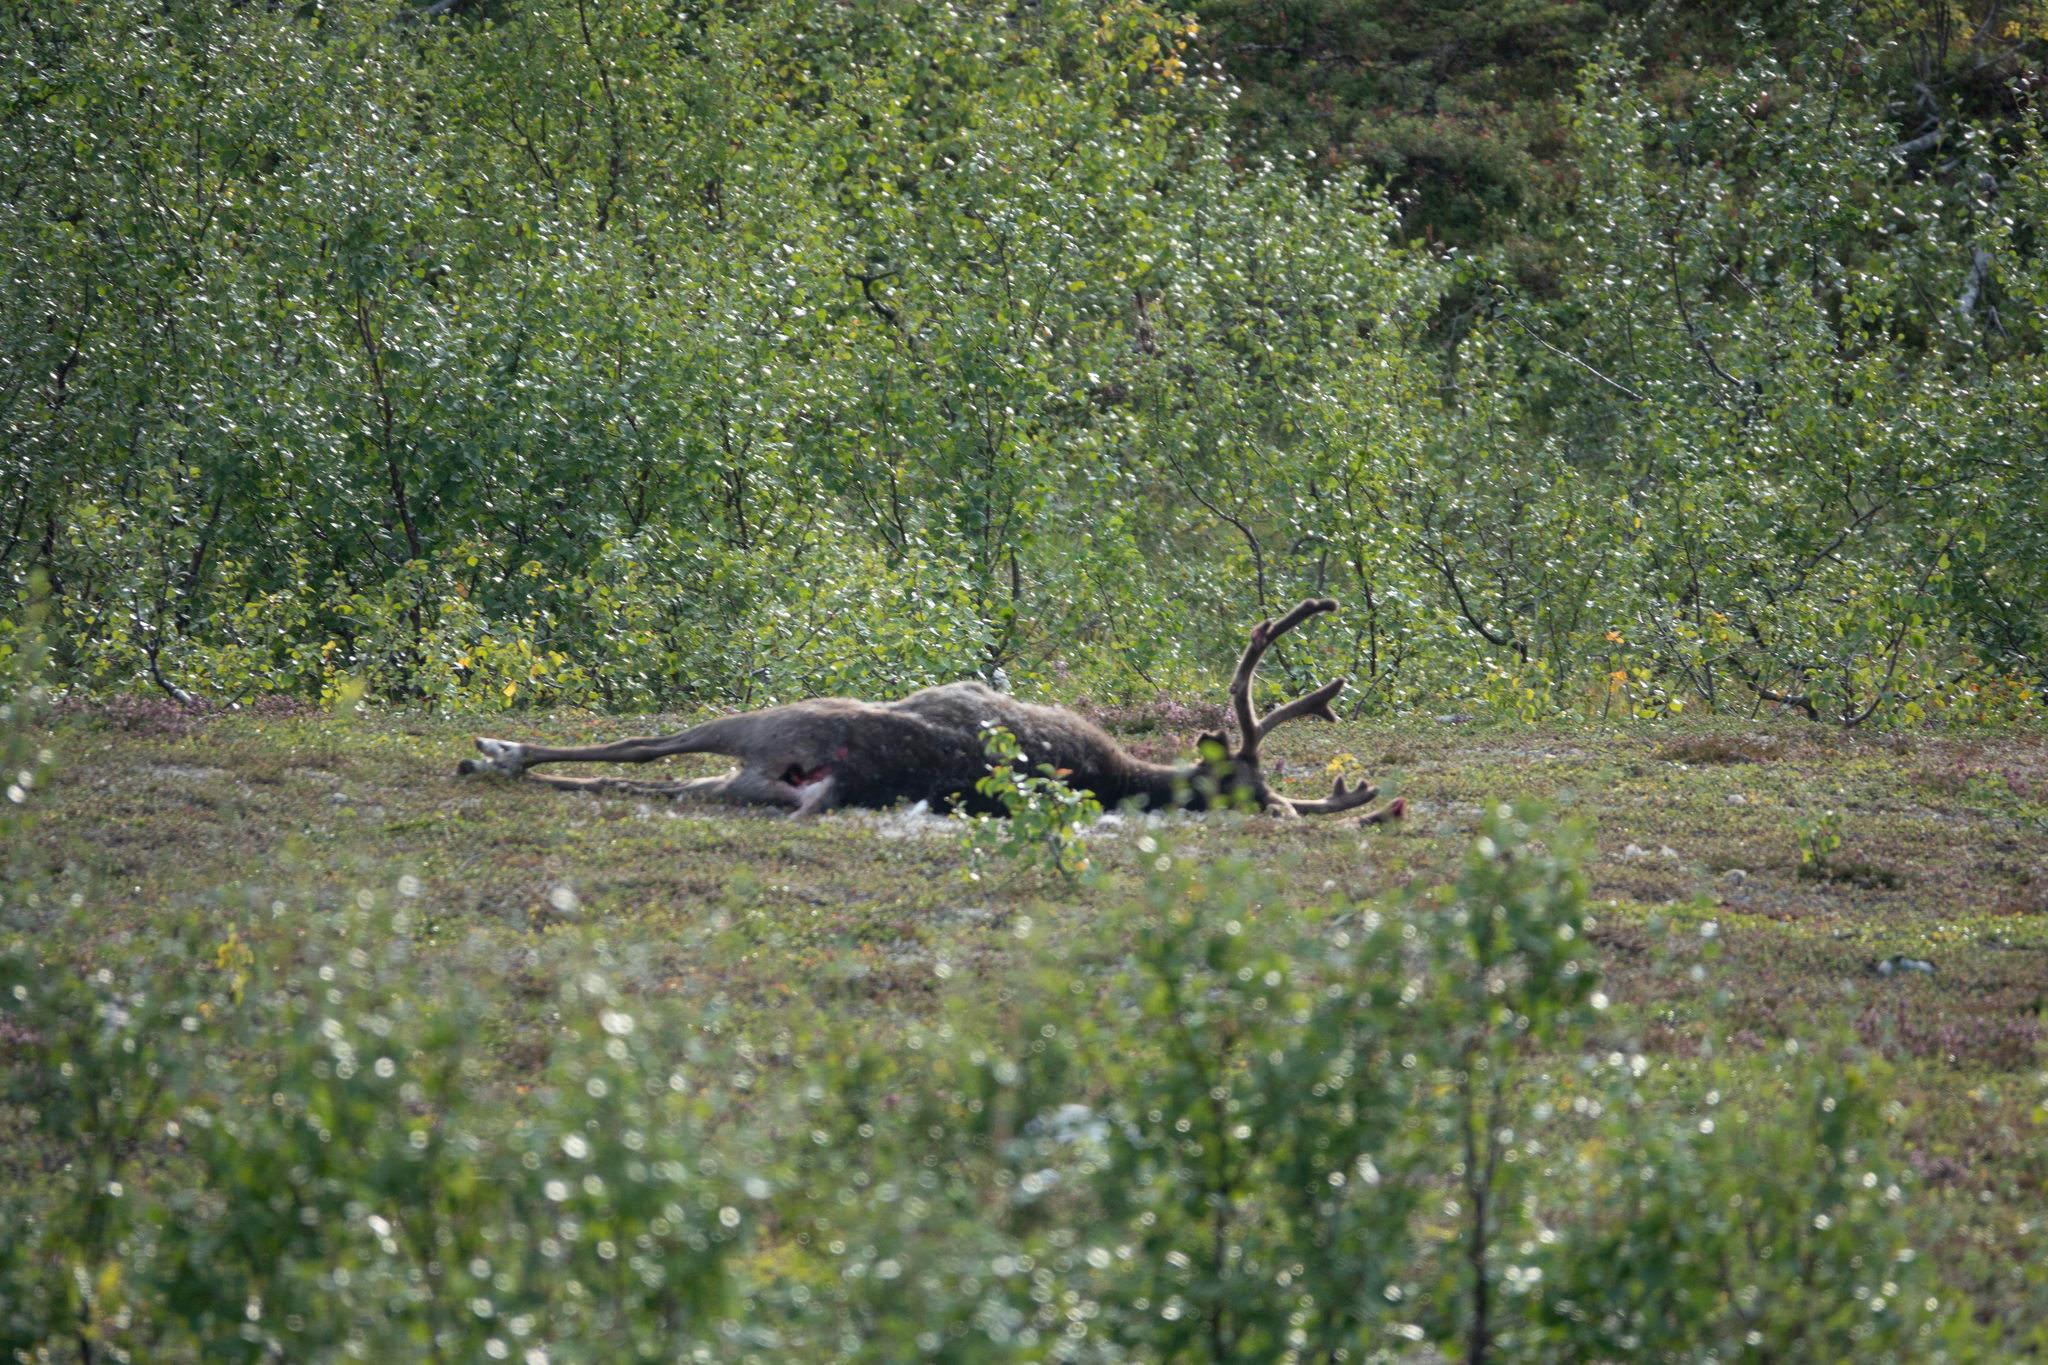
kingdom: Animalia
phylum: Chordata
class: Mammalia
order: Artiodactyla
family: Cervidae
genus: Rangifer
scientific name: Rangifer tarandus
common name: Reindeer
